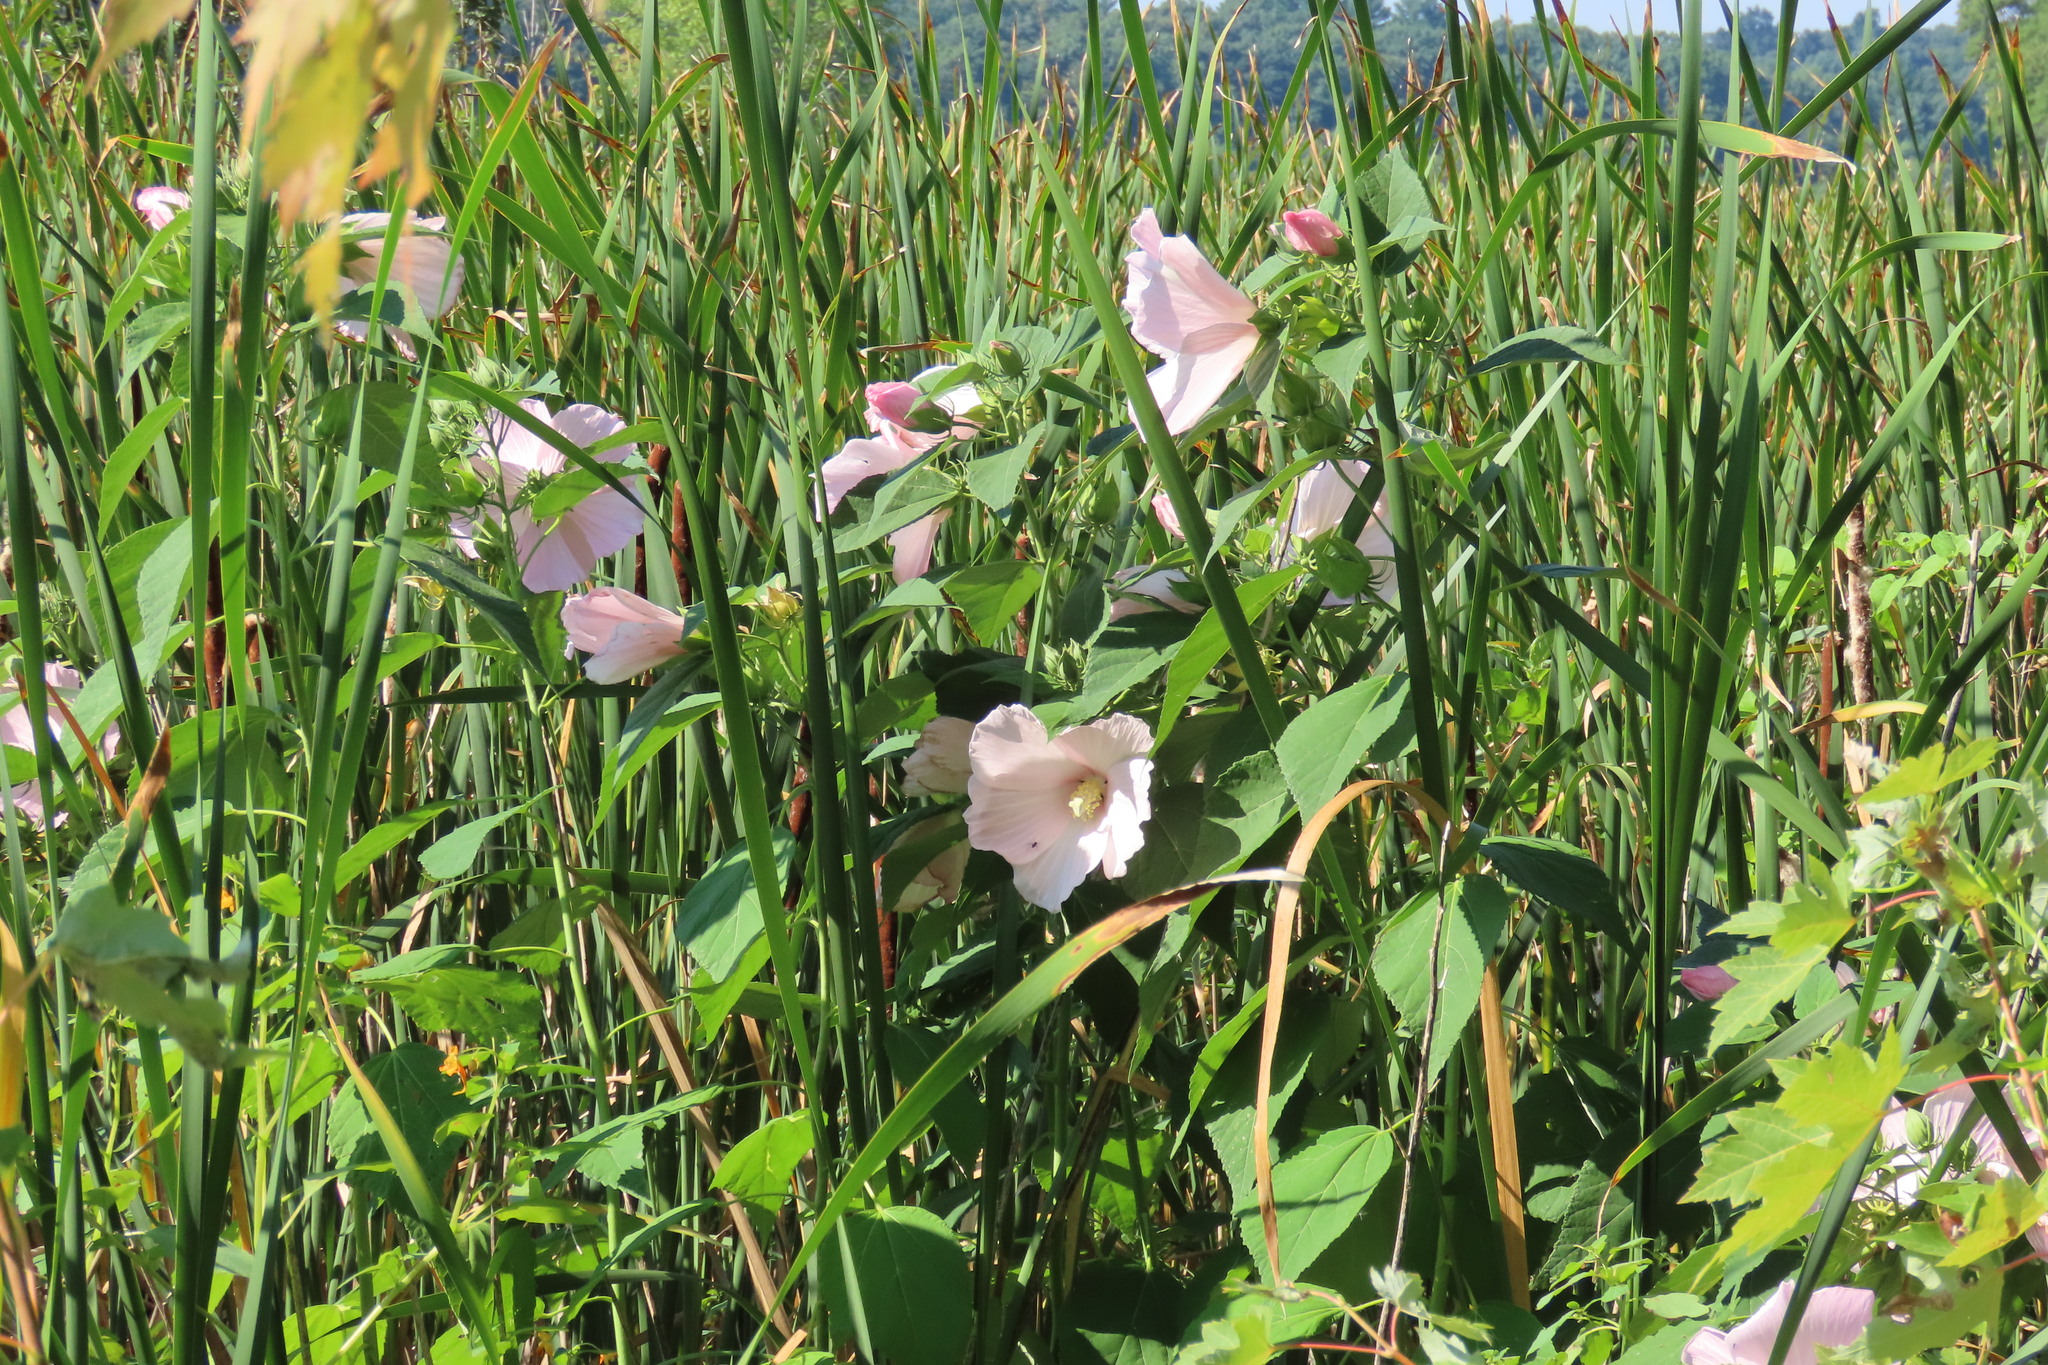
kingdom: Plantae
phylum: Tracheophyta
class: Magnoliopsida
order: Malvales
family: Malvaceae
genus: Hibiscus
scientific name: Hibiscus moscheutos
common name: Common rose-mallow
